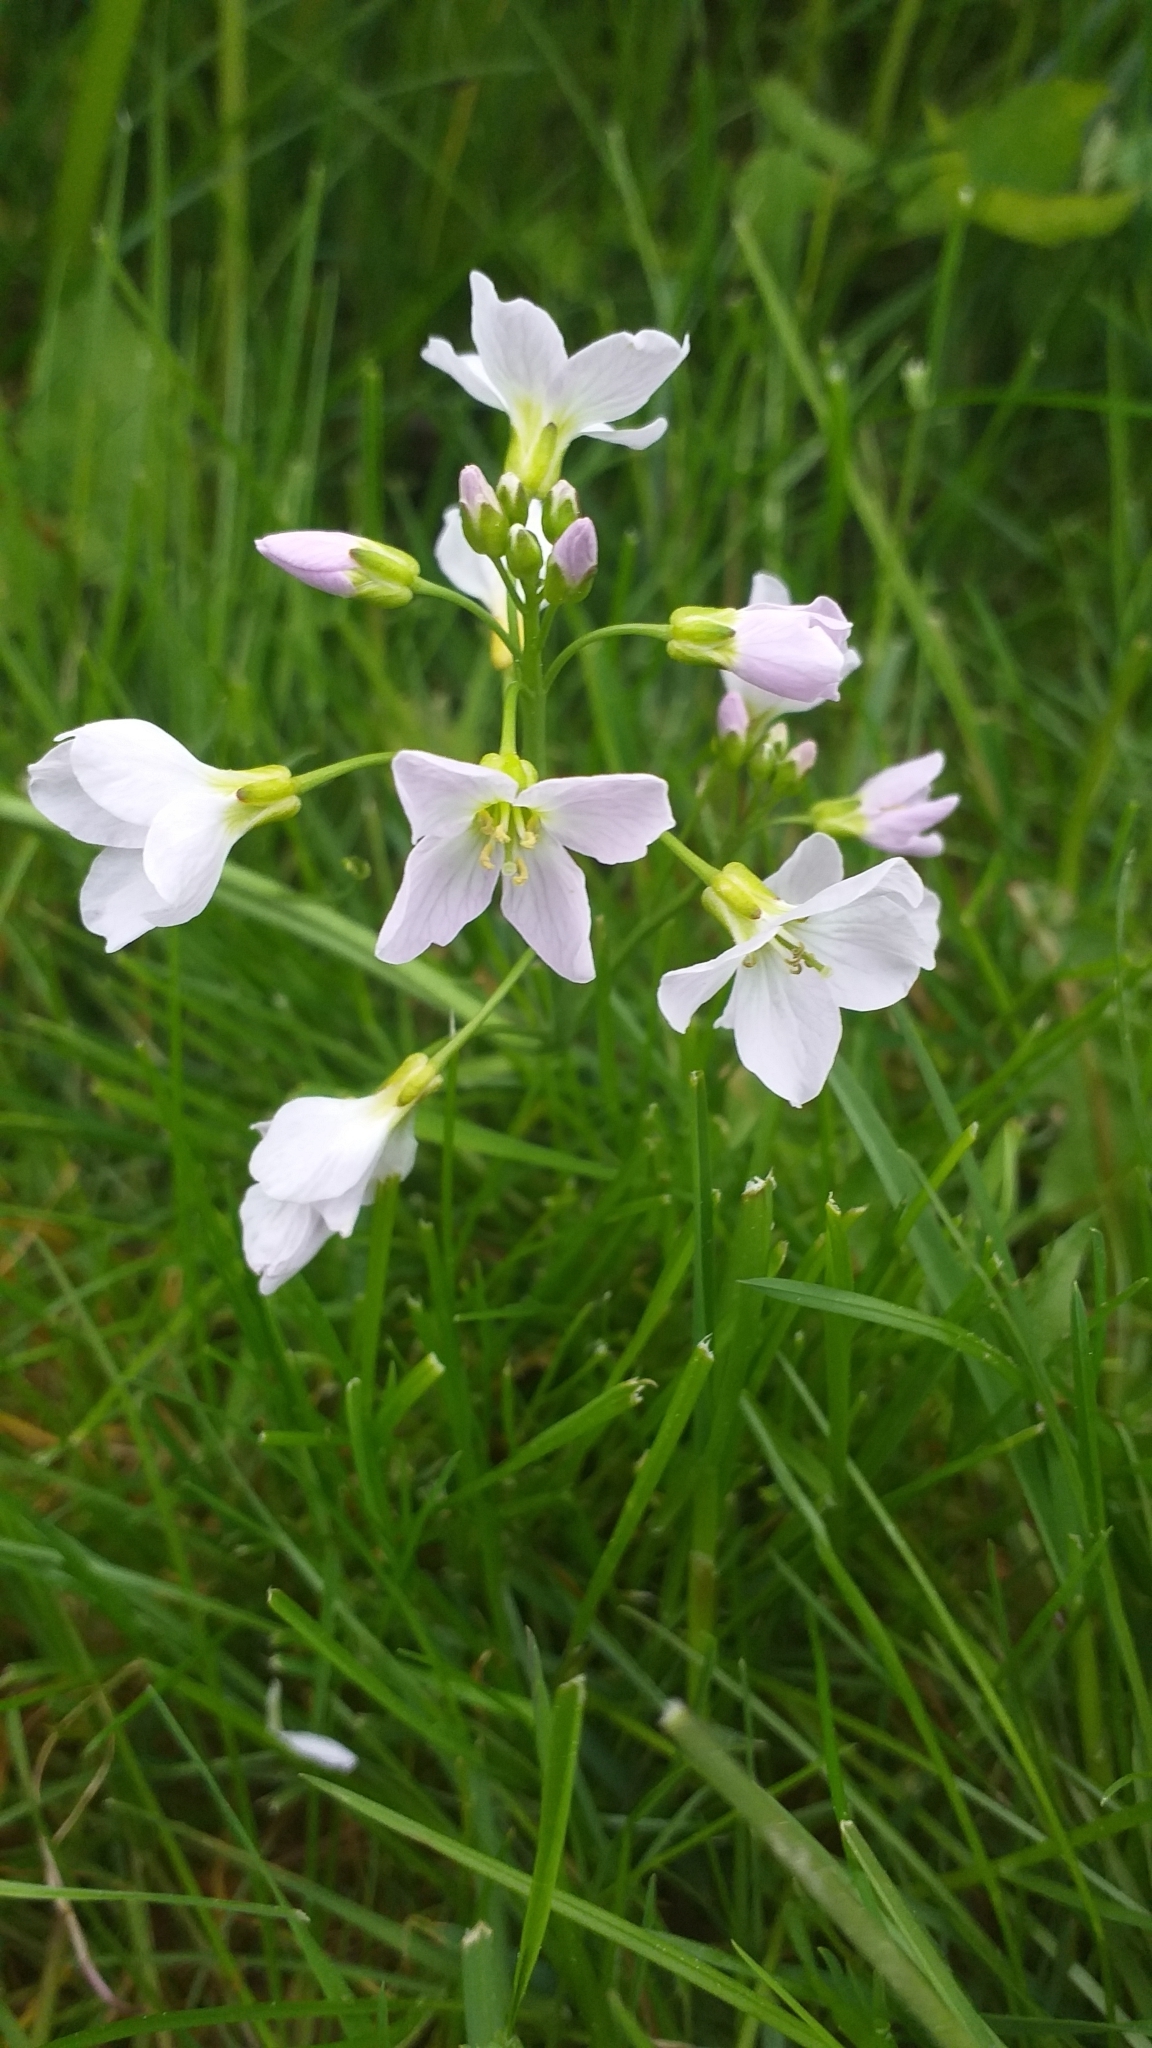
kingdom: Plantae
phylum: Tracheophyta
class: Magnoliopsida
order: Brassicales
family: Brassicaceae
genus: Cardamine
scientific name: Cardamine pratensis
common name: Cuckoo flower
